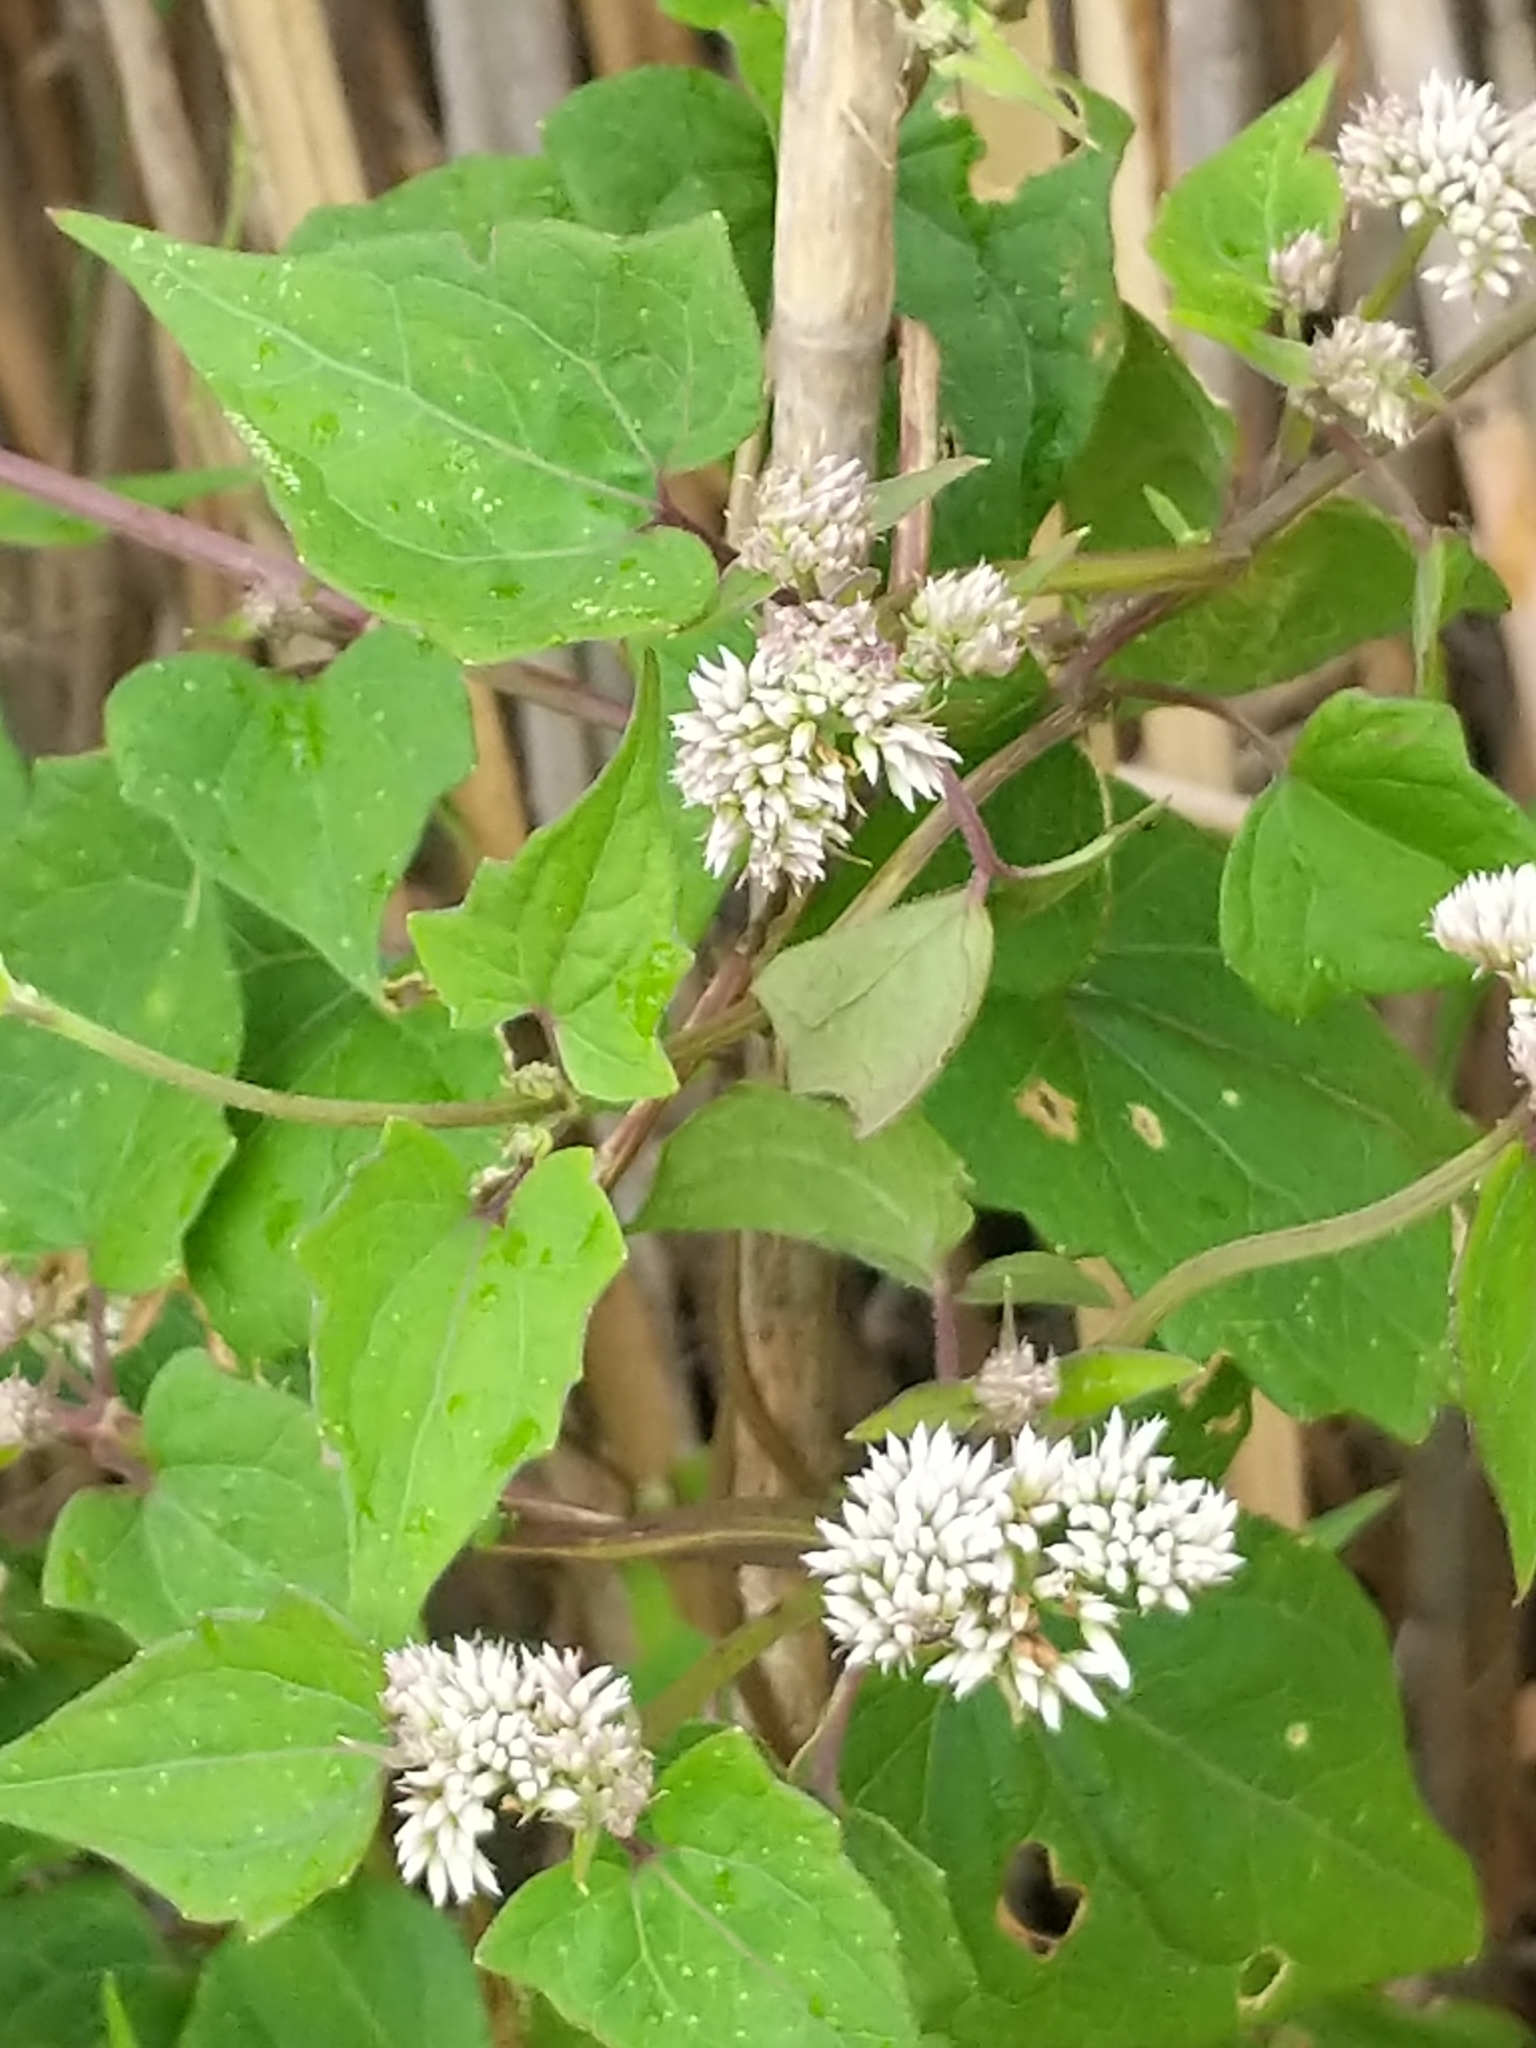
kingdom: Plantae
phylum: Tracheophyta
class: Magnoliopsida
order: Asterales
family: Asteraceae
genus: Mikania
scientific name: Mikania scandens
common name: Climbing hempvine
